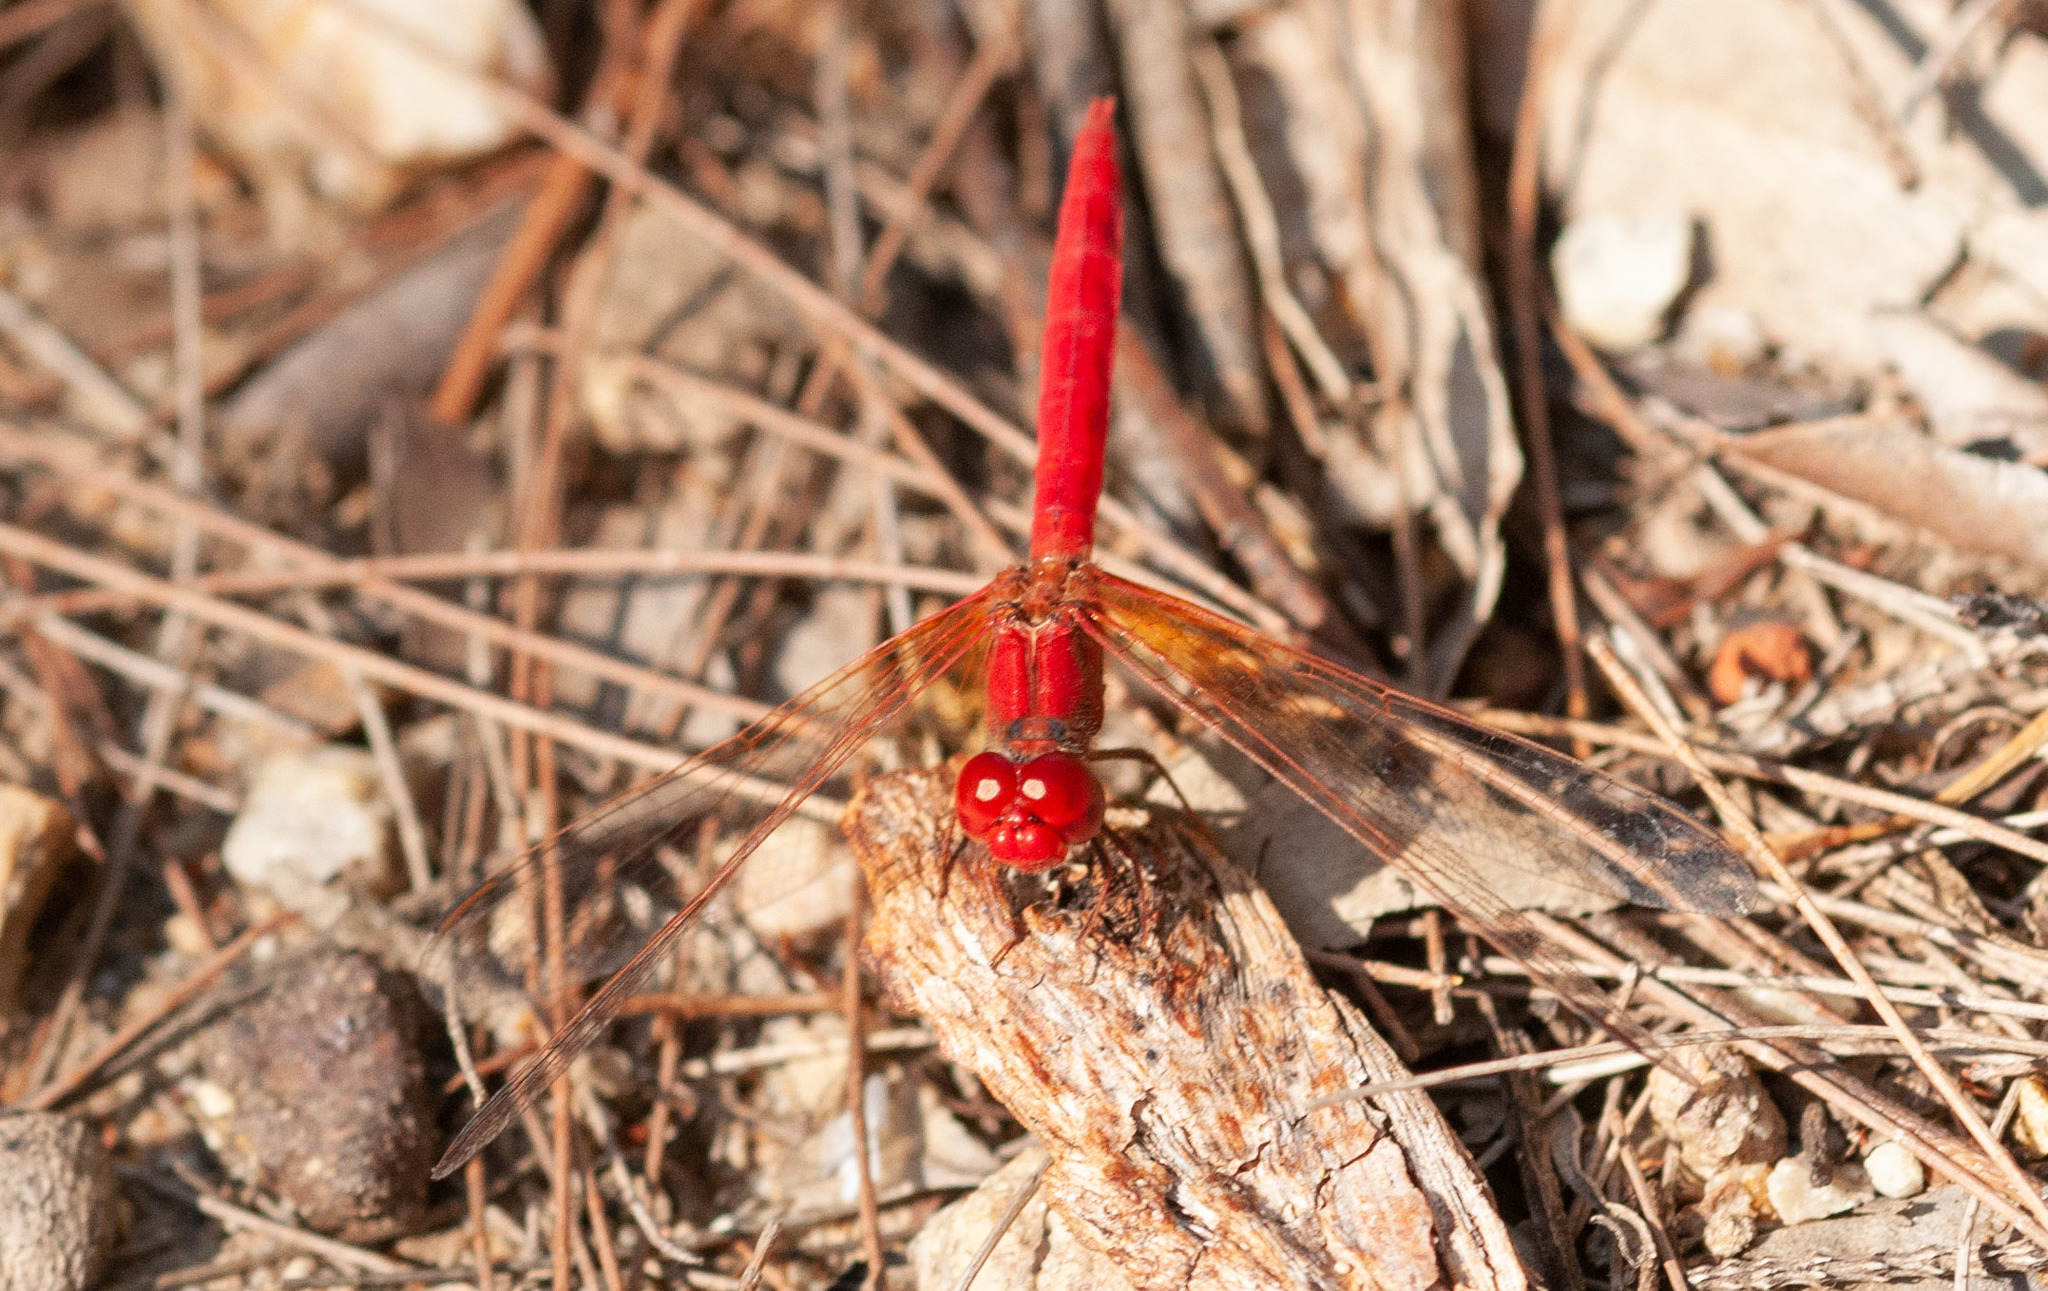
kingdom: Animalia
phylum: Arthropoda
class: Insecta
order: Odonata
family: Libellulidae
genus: Diplacodes
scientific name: Diplacodes haematodes
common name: Scarlet percher
